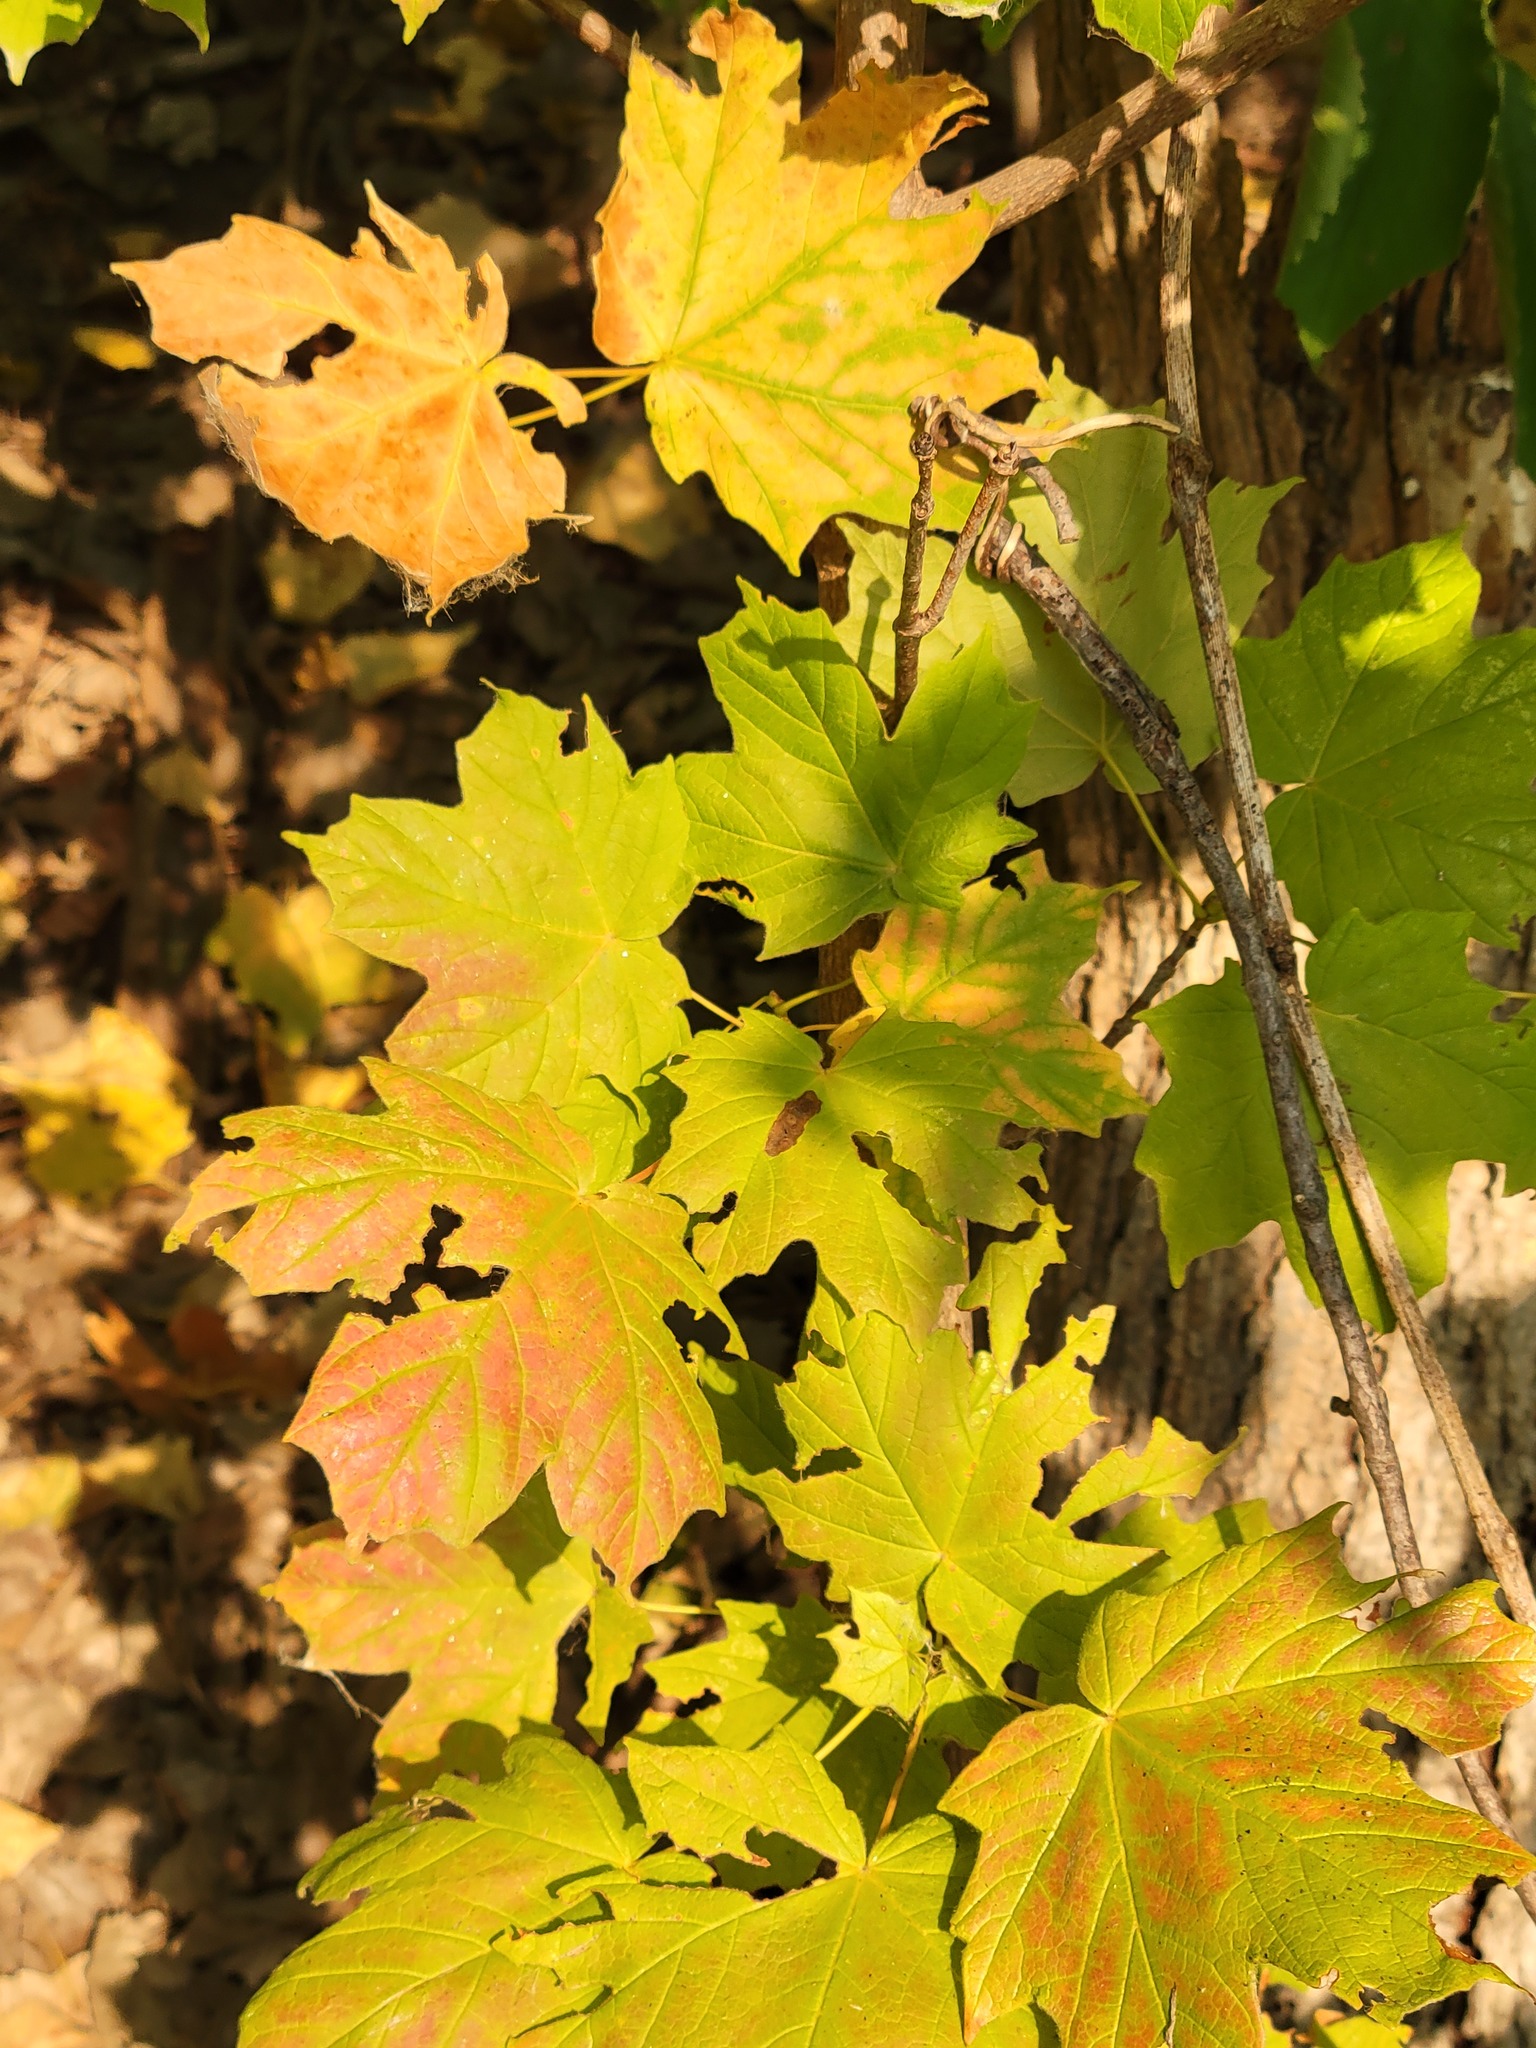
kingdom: Plantae
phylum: Tracheophyta
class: Magnoliopsida
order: Sapindales
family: Sapindaceae
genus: Acer
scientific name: Acer saccharum
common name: Sugar maple
